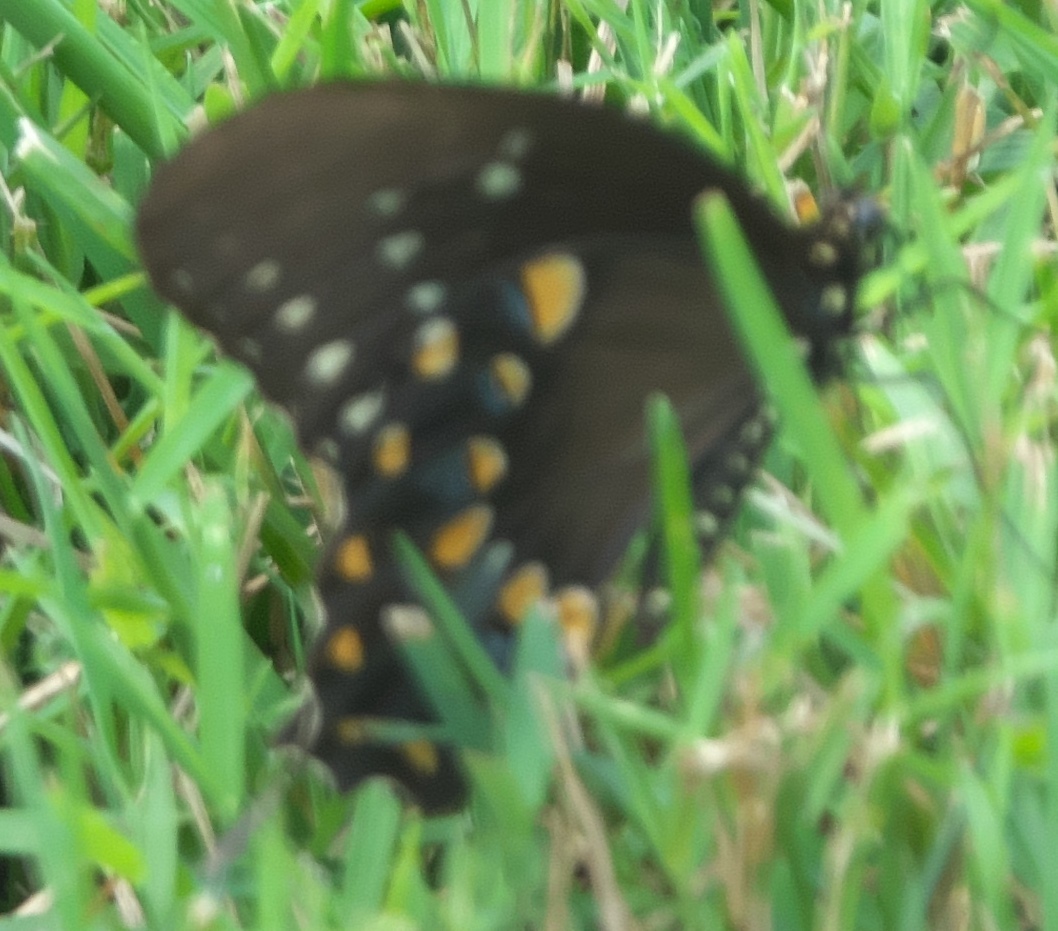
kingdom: Animalia
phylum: Arthropoda
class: Insecta
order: Lepidoptera
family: Papilionidae
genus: Papilio
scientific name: Papilio troilus
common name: Spicebush swallowtail
